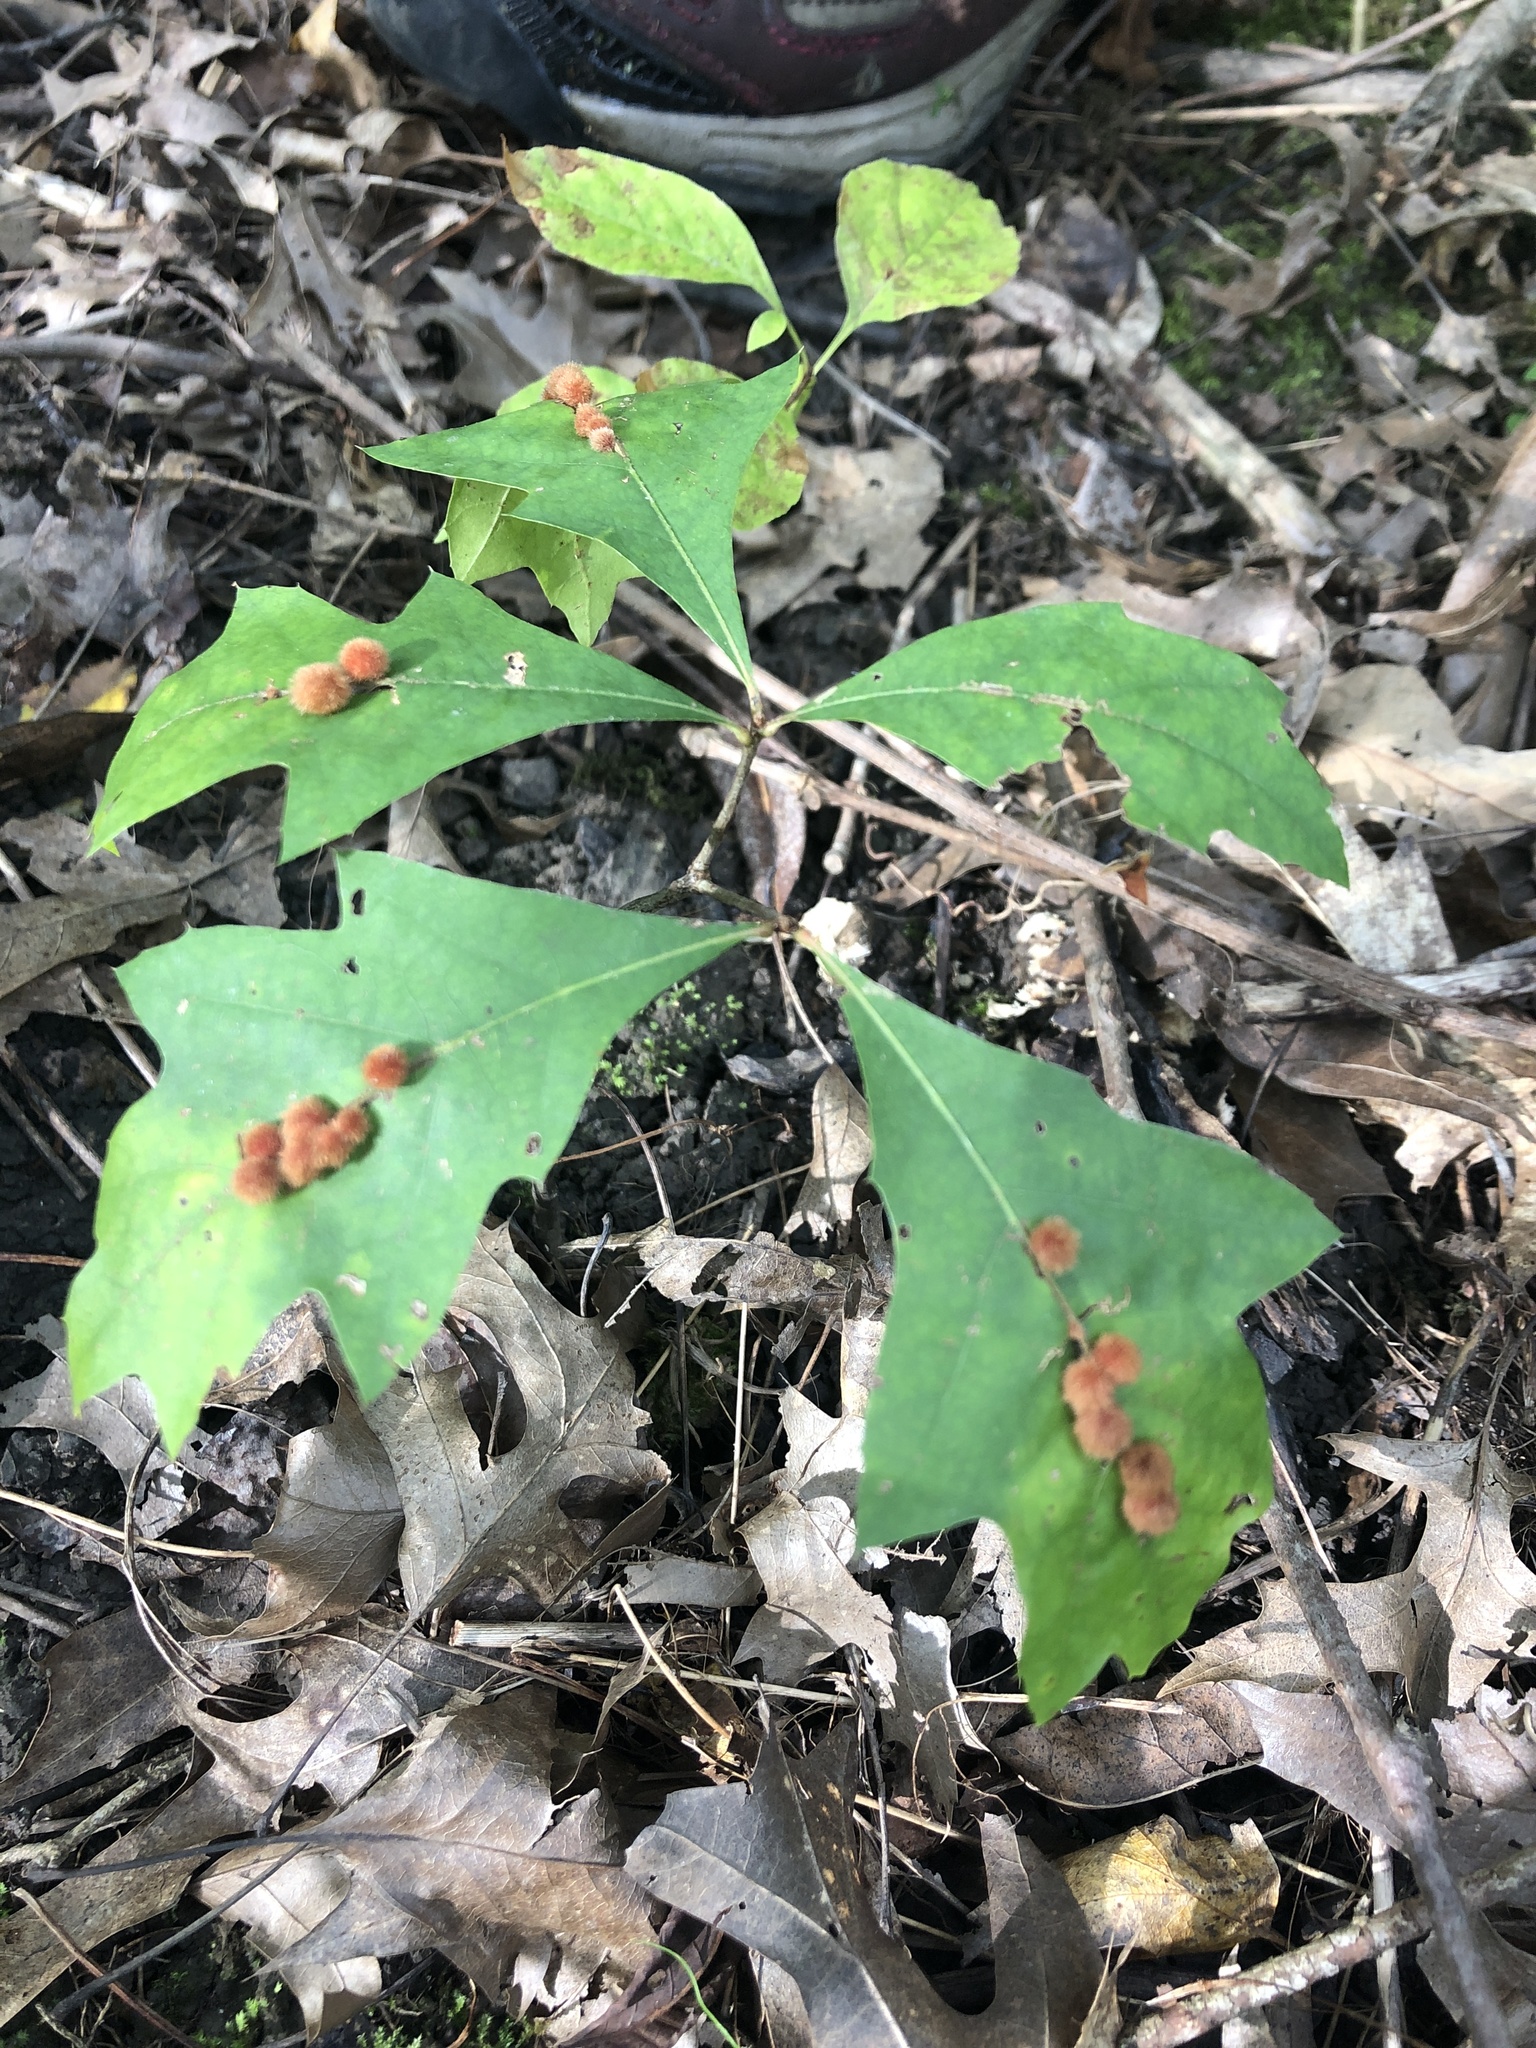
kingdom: Animalia
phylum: Arthropoda
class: Insecta
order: Hymenoptera
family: Cynipidae
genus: Callirhytis
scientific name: Callirhytis
